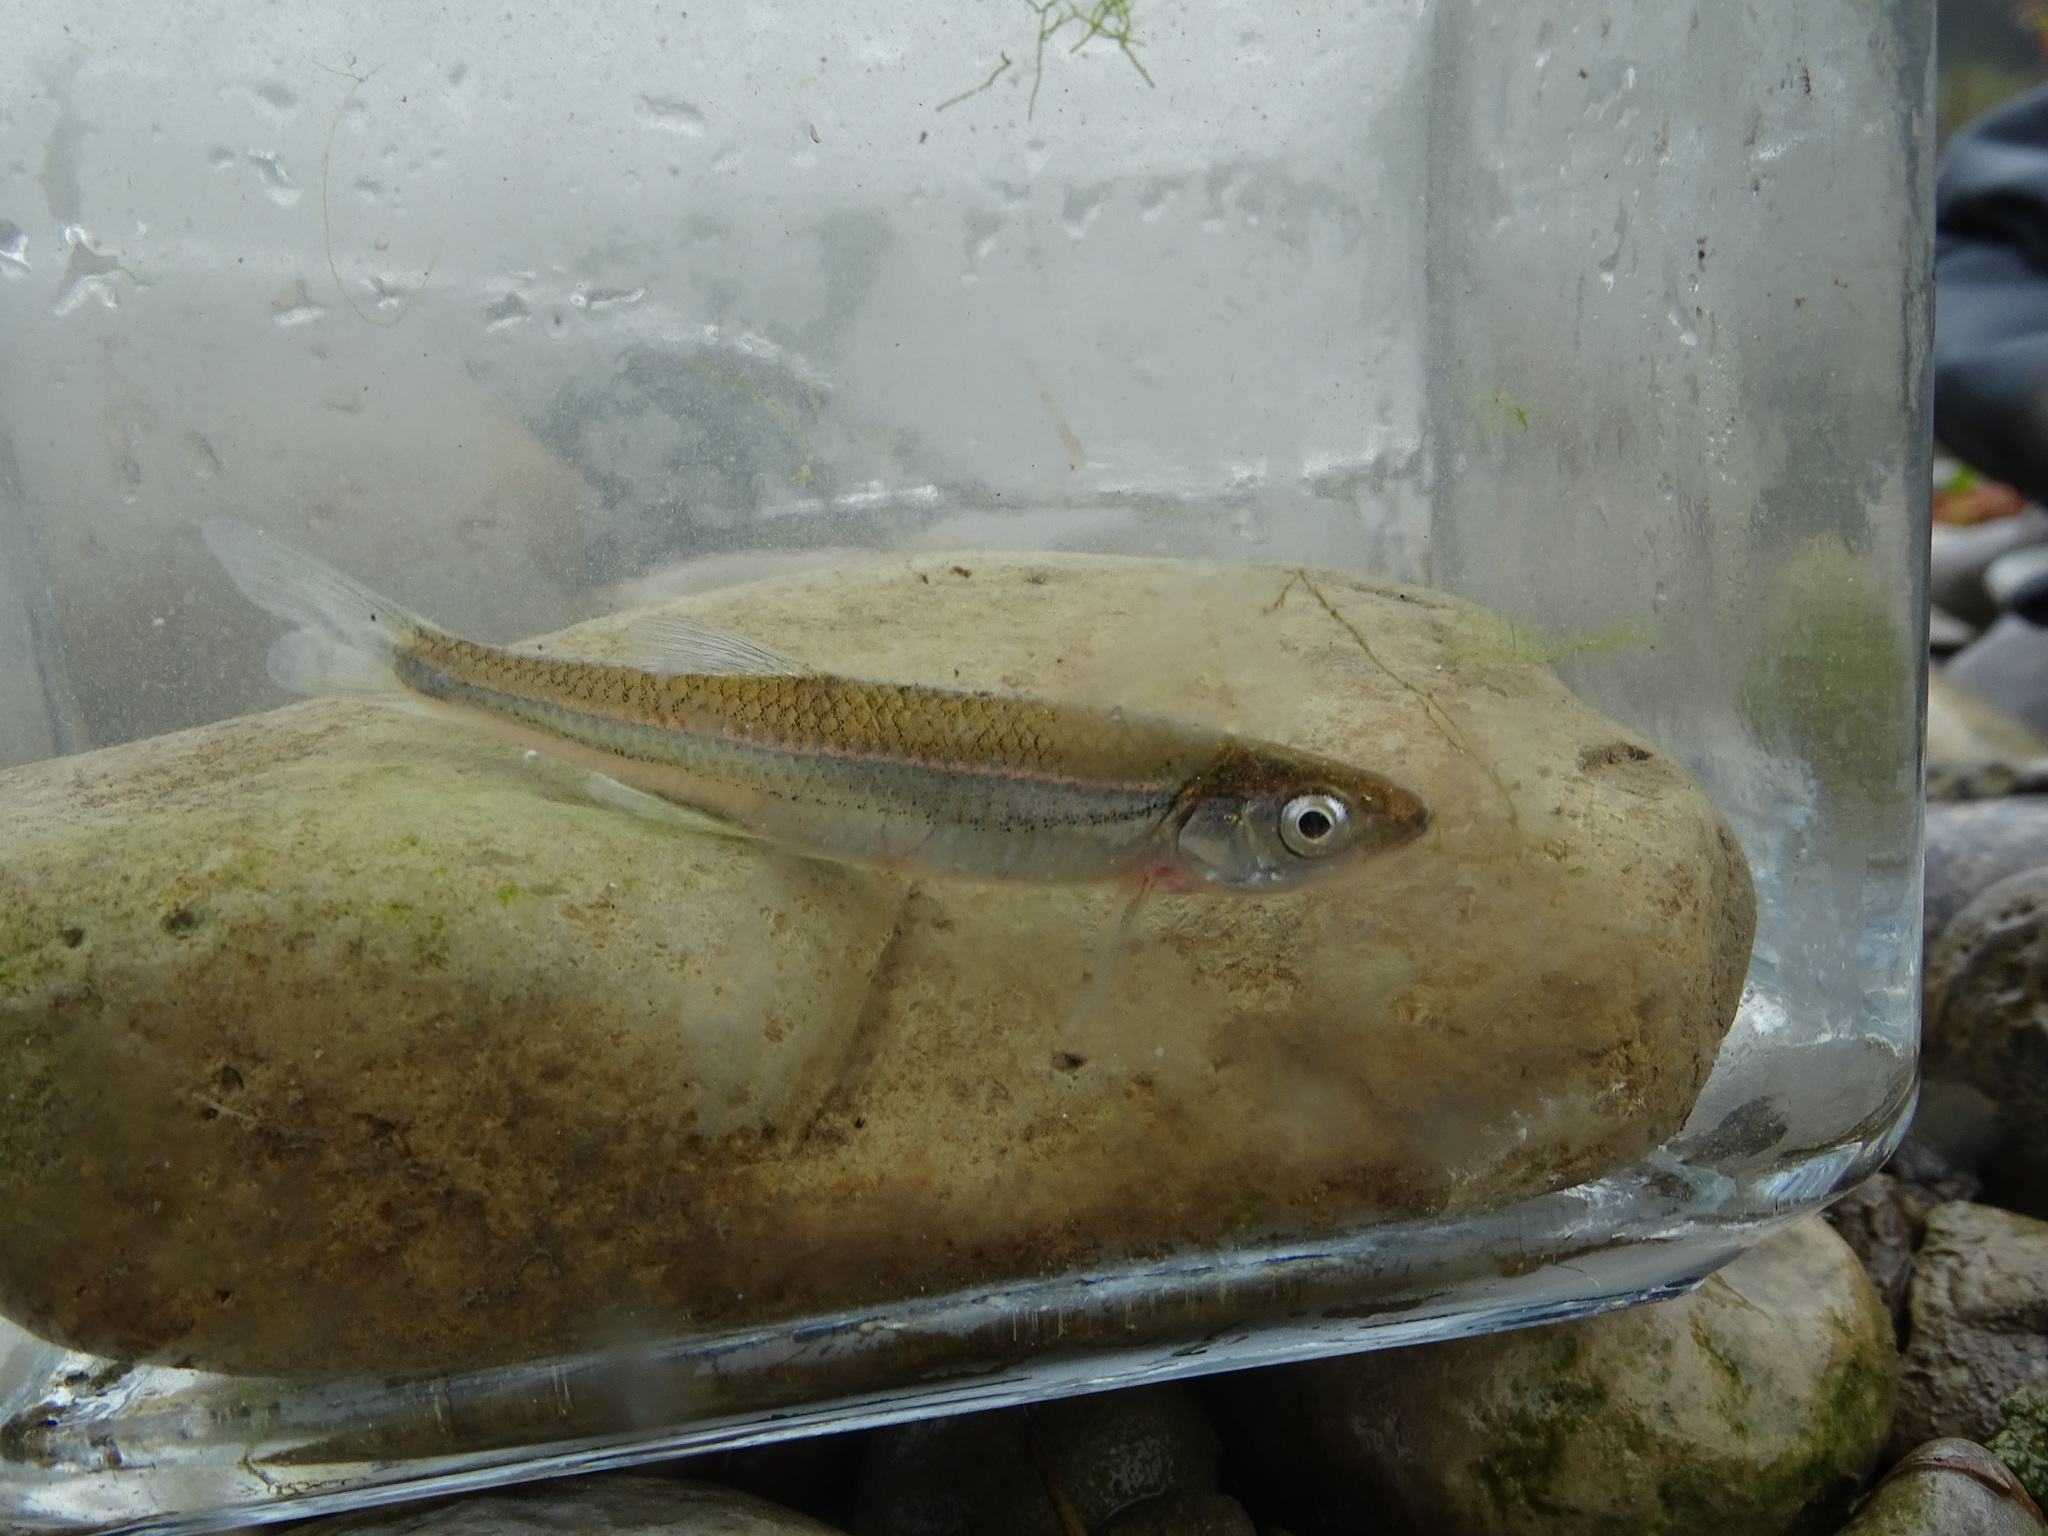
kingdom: Animalia
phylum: Chordata
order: Cypriniformes
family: Cyprinidae
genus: Notropis
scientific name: Notropis rubellus
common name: Rosyface shiner
